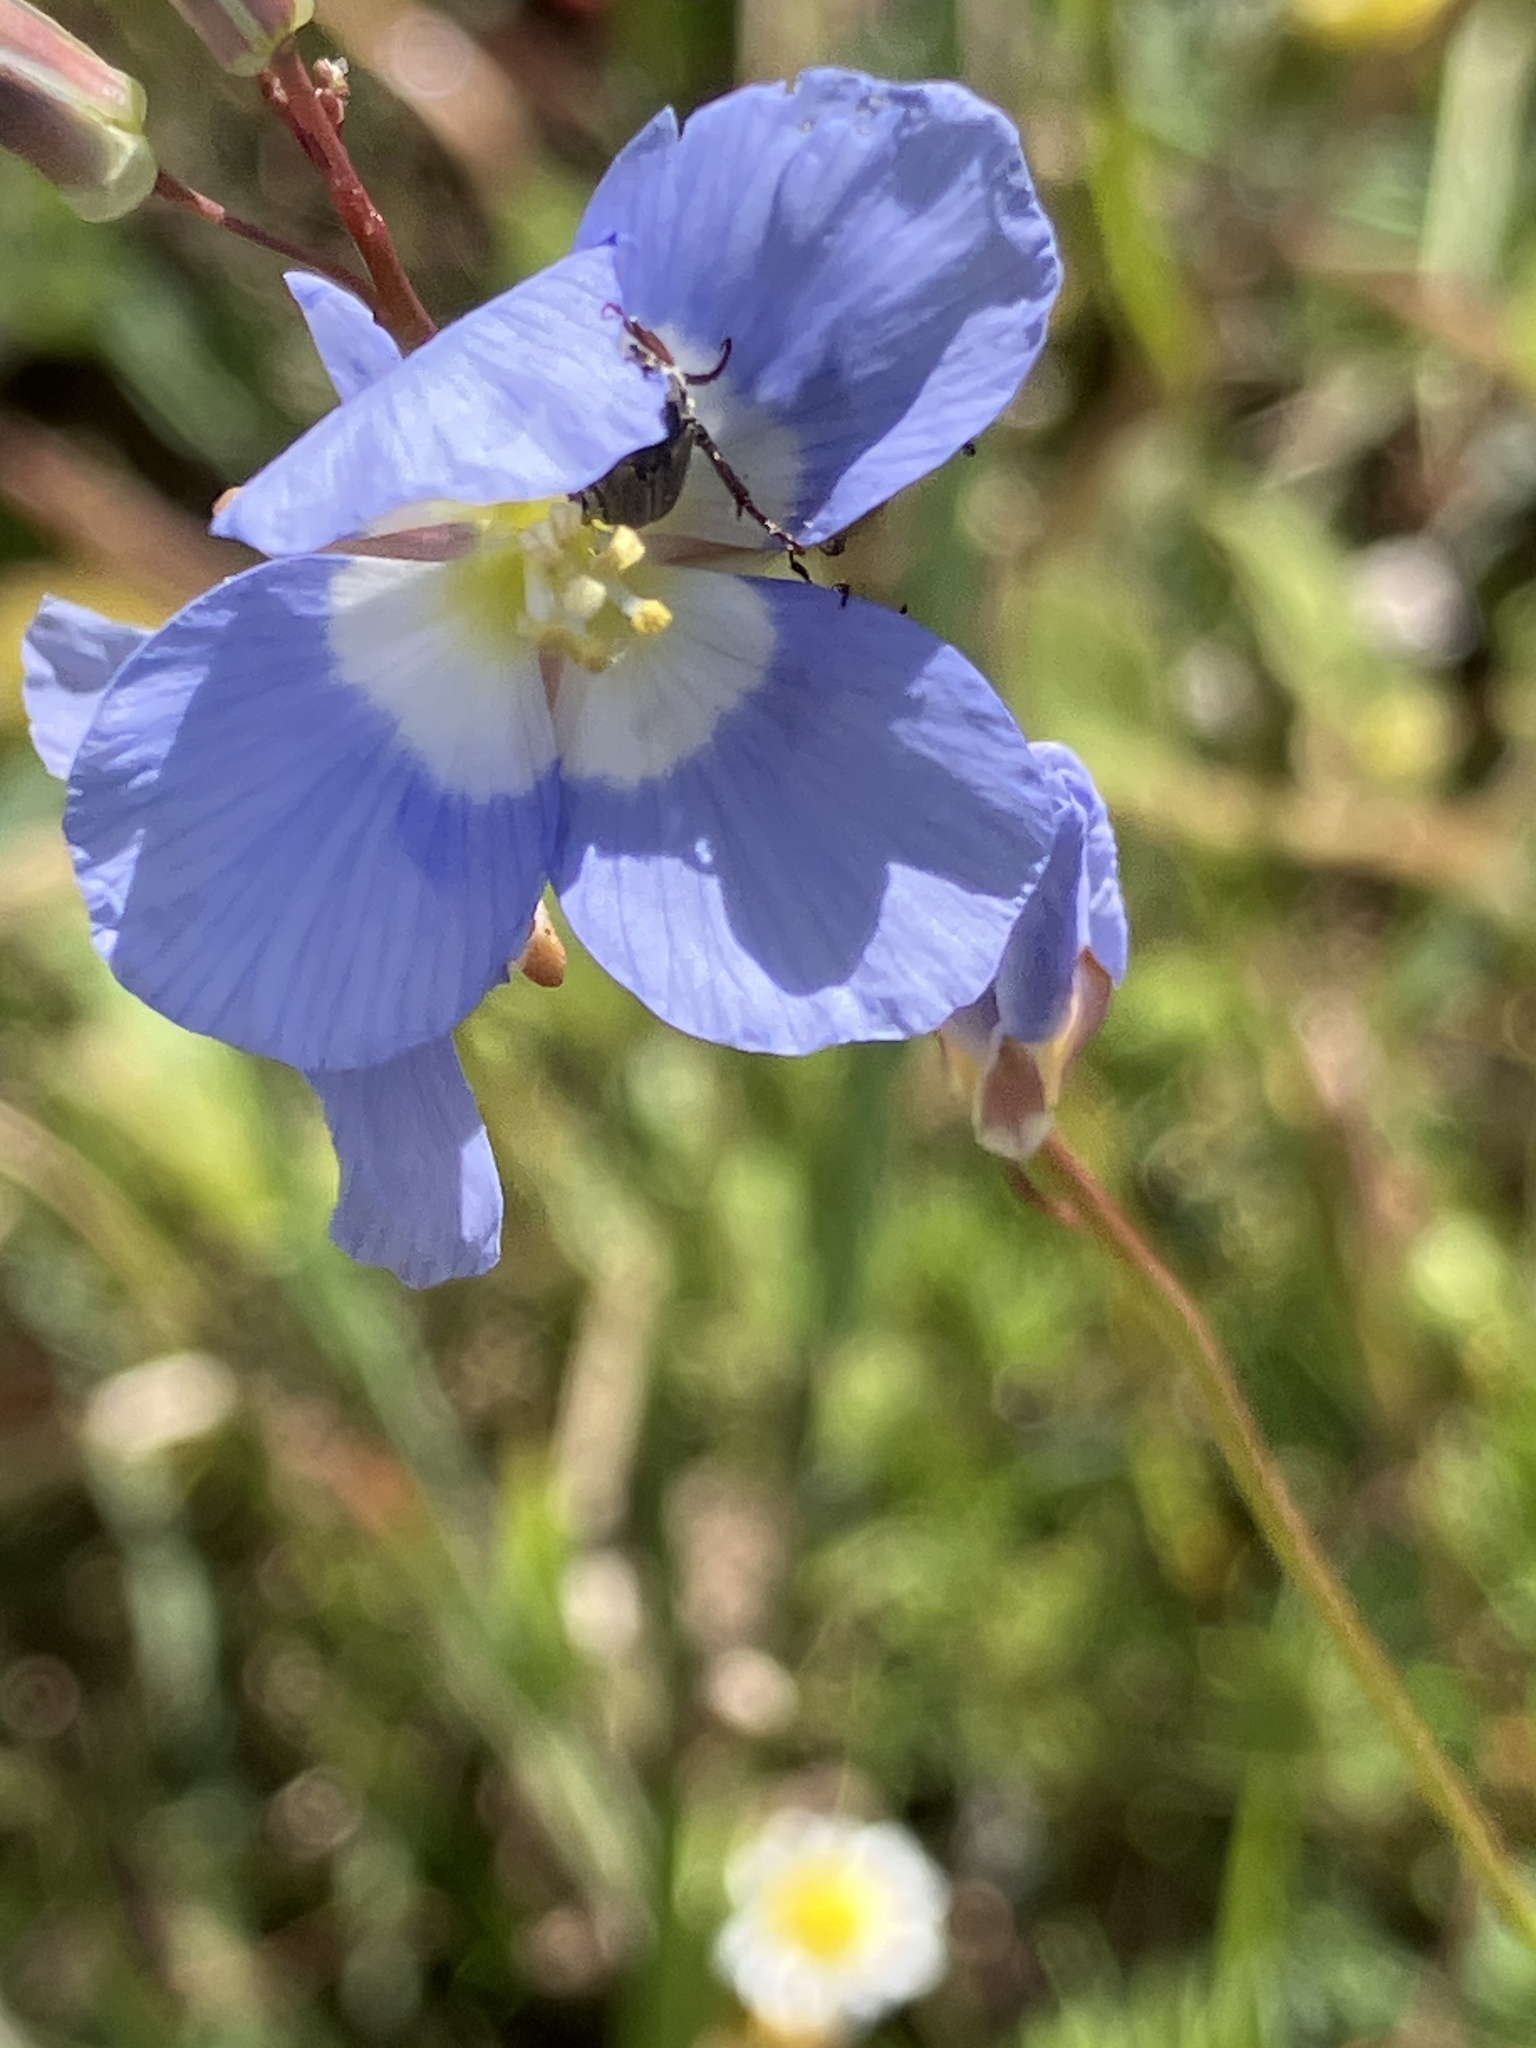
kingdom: Plantae
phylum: Tracheophyta
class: Magnoliopsida
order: Brassicales
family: Brassicaceae
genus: Heliophila
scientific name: Heliophila coronopifolia
